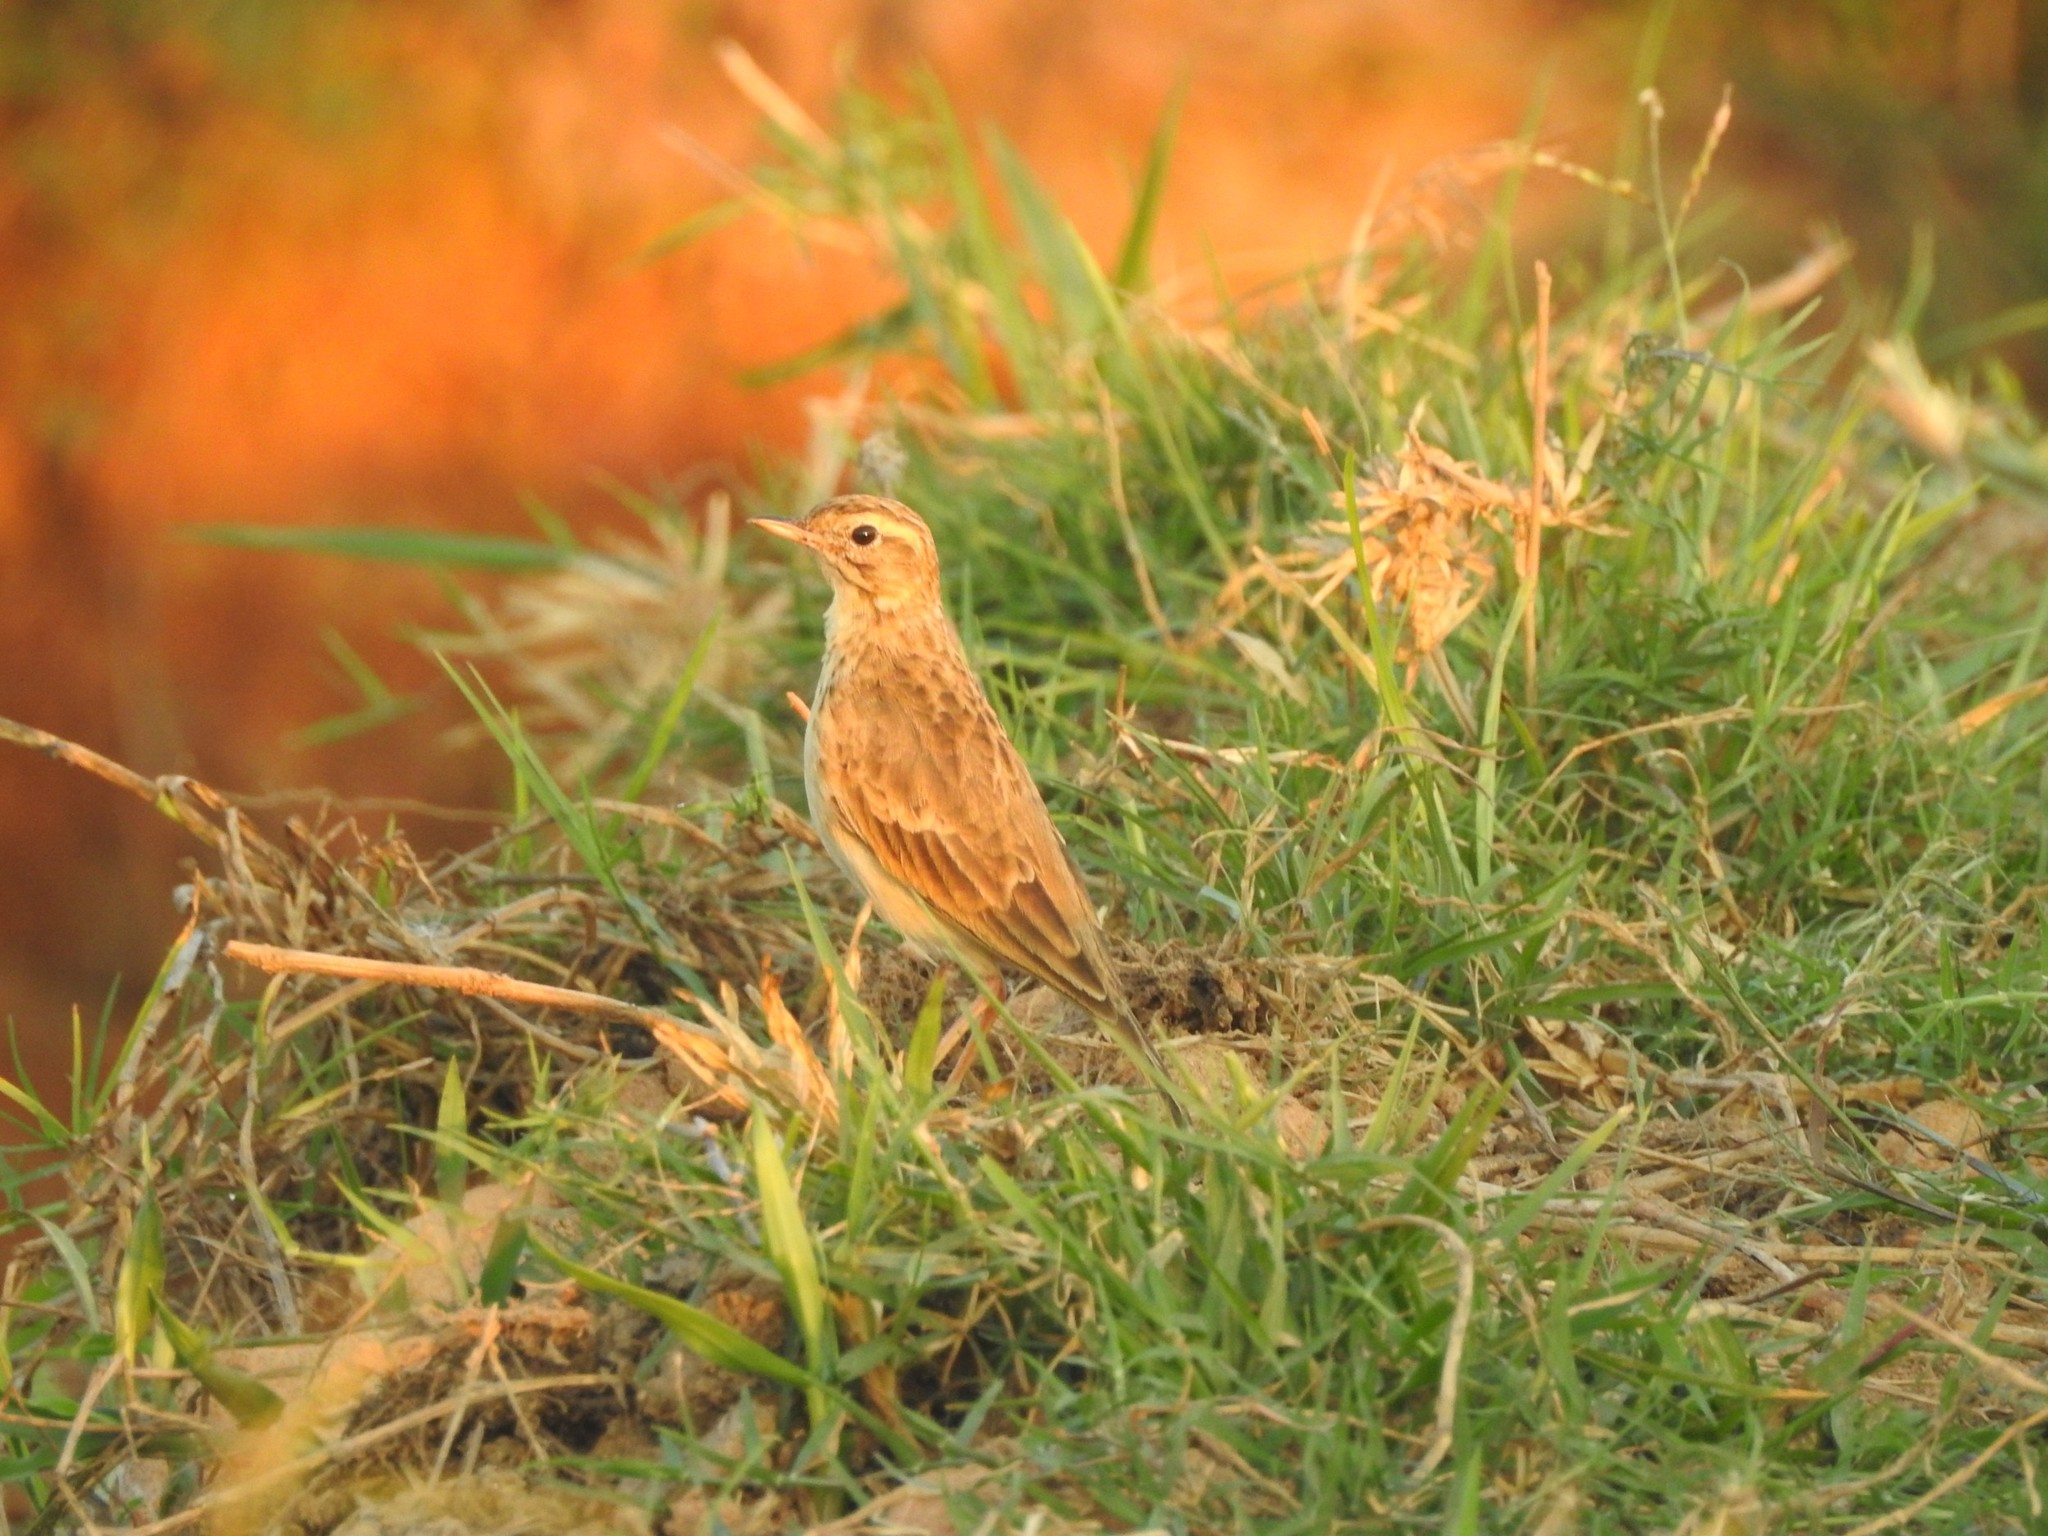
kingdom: Animalia
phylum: Chordata
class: Aves
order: Passeriformes
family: Motacillidae
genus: Anthus
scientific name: Anthus rufulus
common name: Paddyfield pipit
